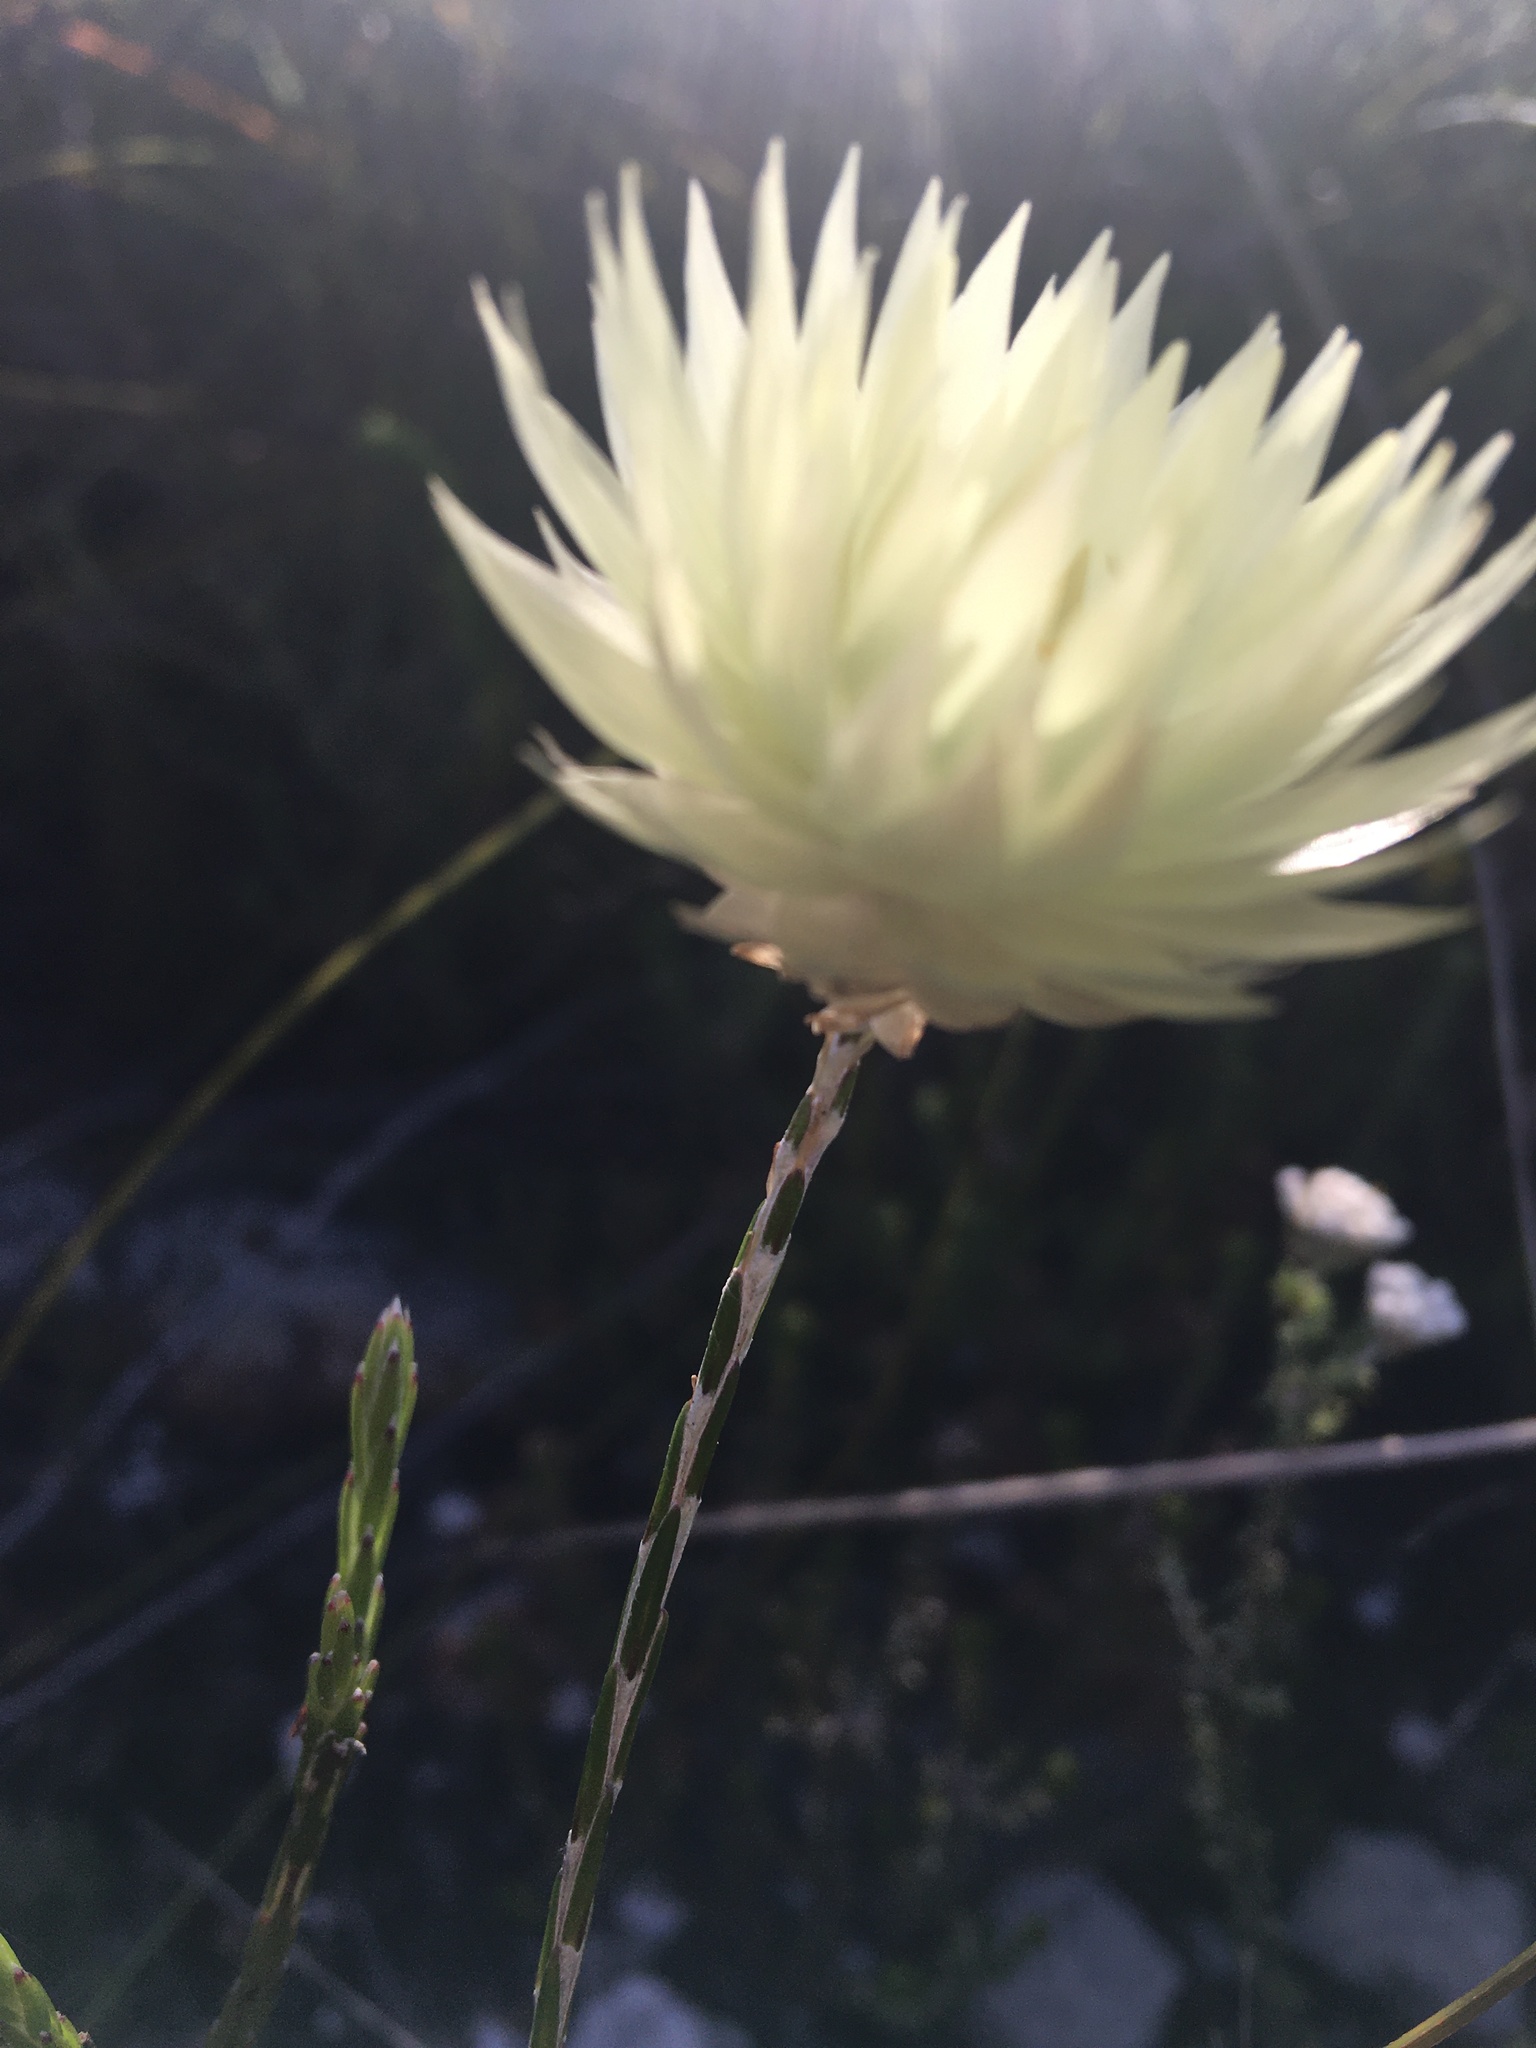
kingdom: Plantae
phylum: Tracheophyta
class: Magnoliopsida
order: Asterales
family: Asteraceae
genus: Edmondia
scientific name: Edmondia sesamoides
